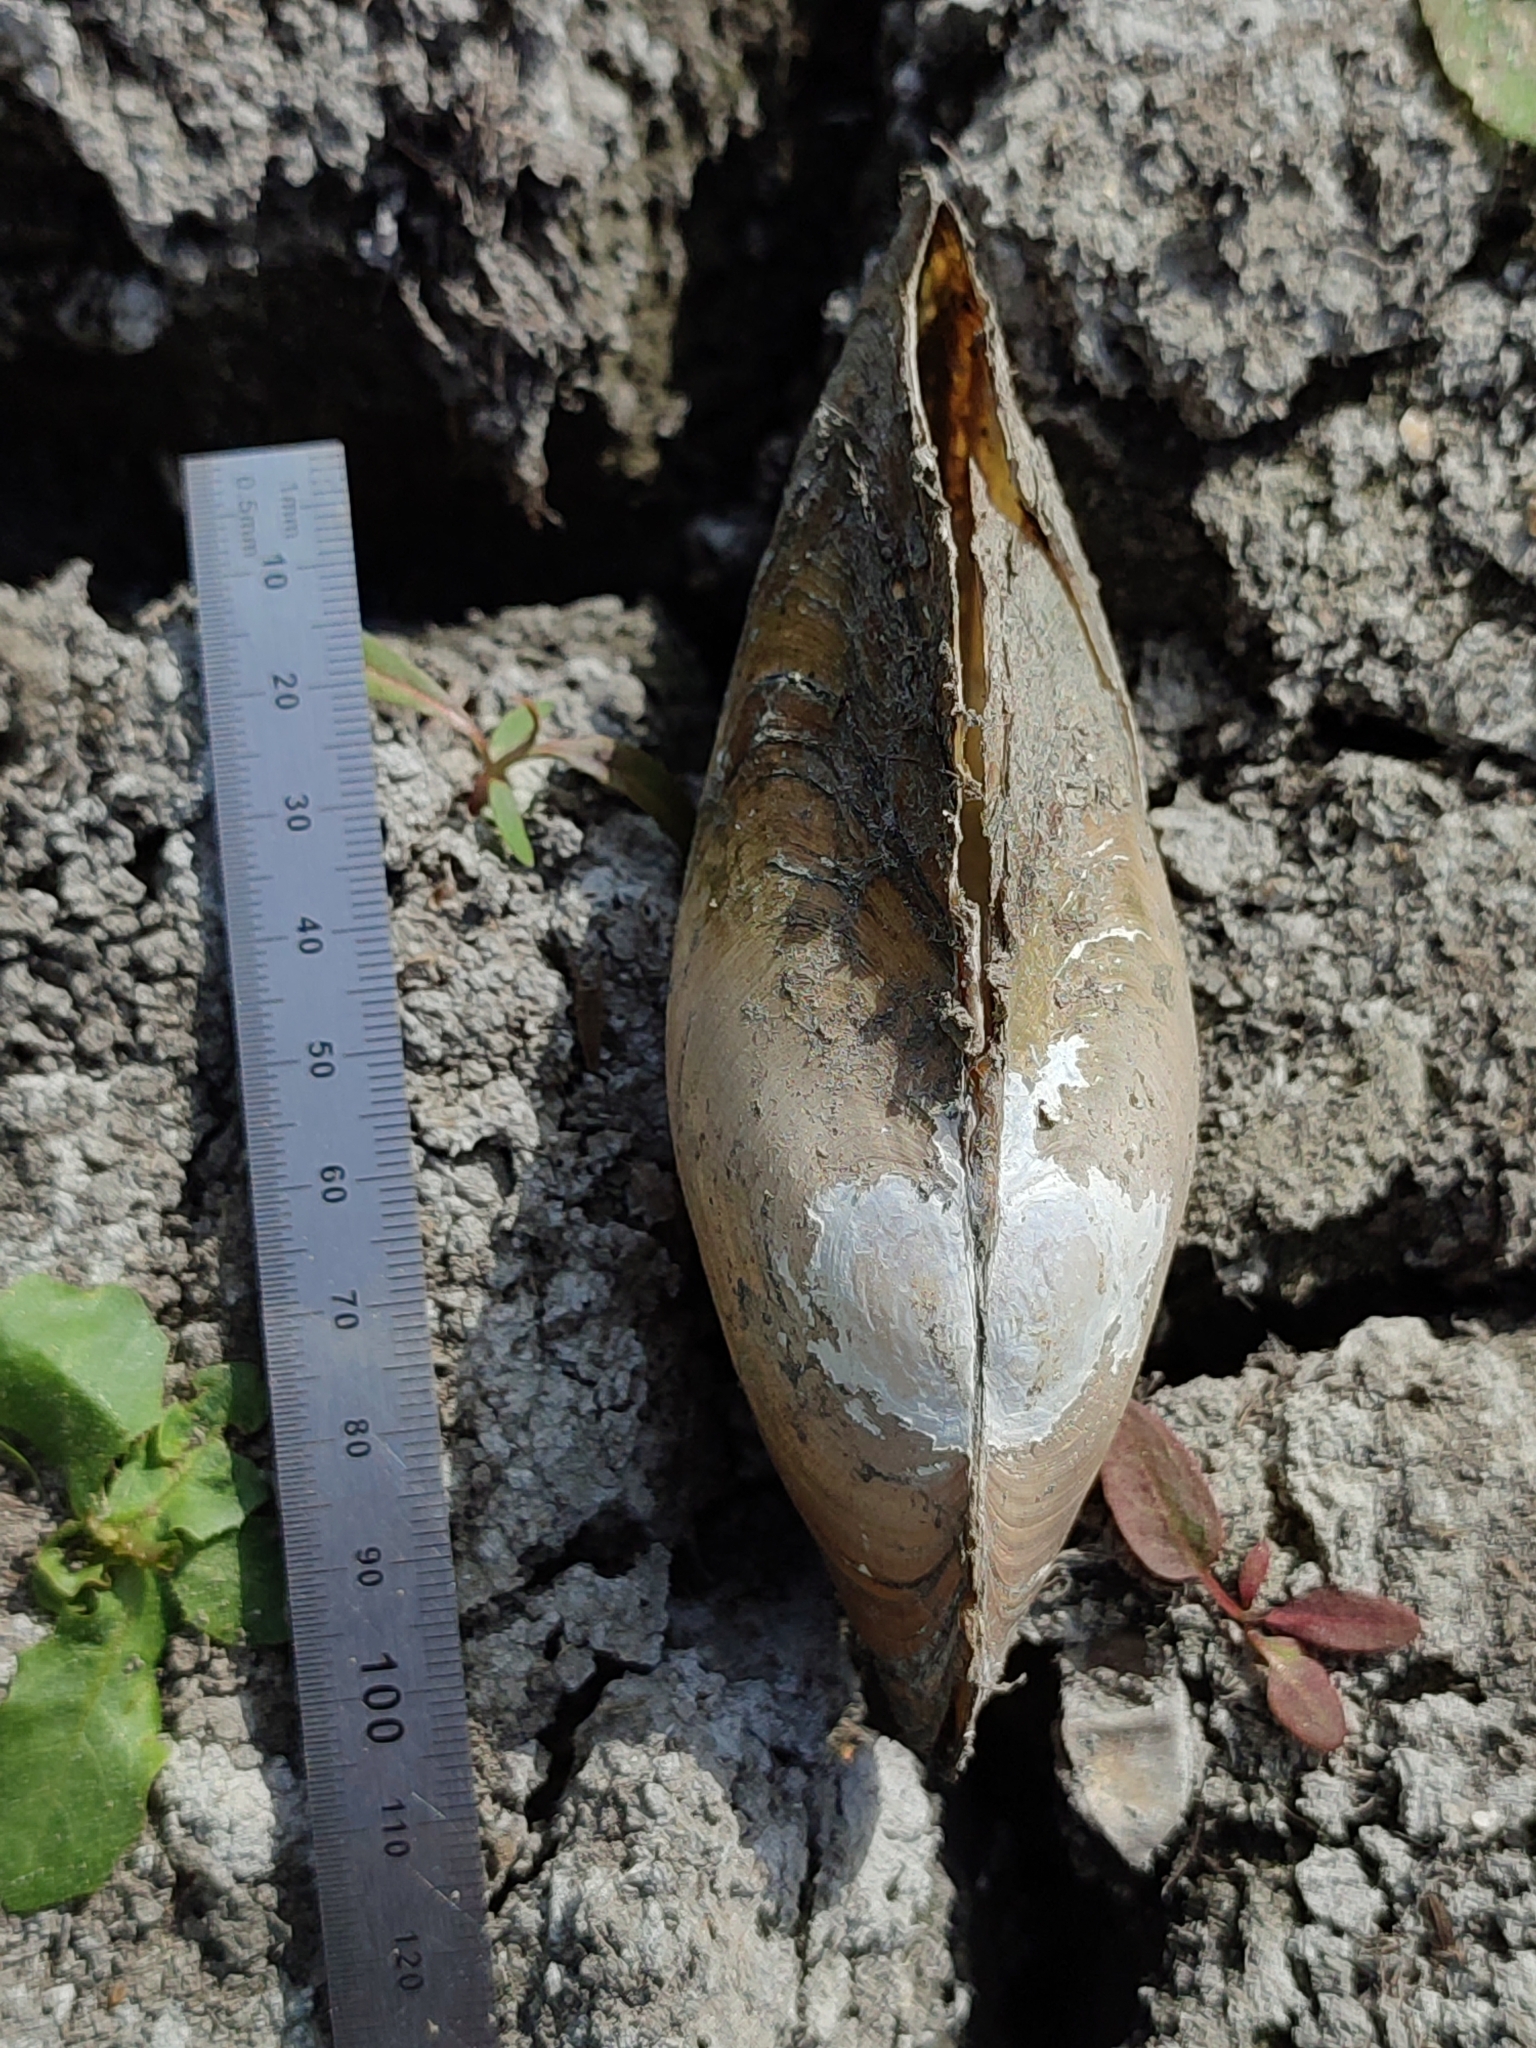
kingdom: Animalia
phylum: Mollusca
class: Bivalvia
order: Unionida
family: Unionidae
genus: Anodonta
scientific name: Anodonta anatina
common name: Duck mussel
